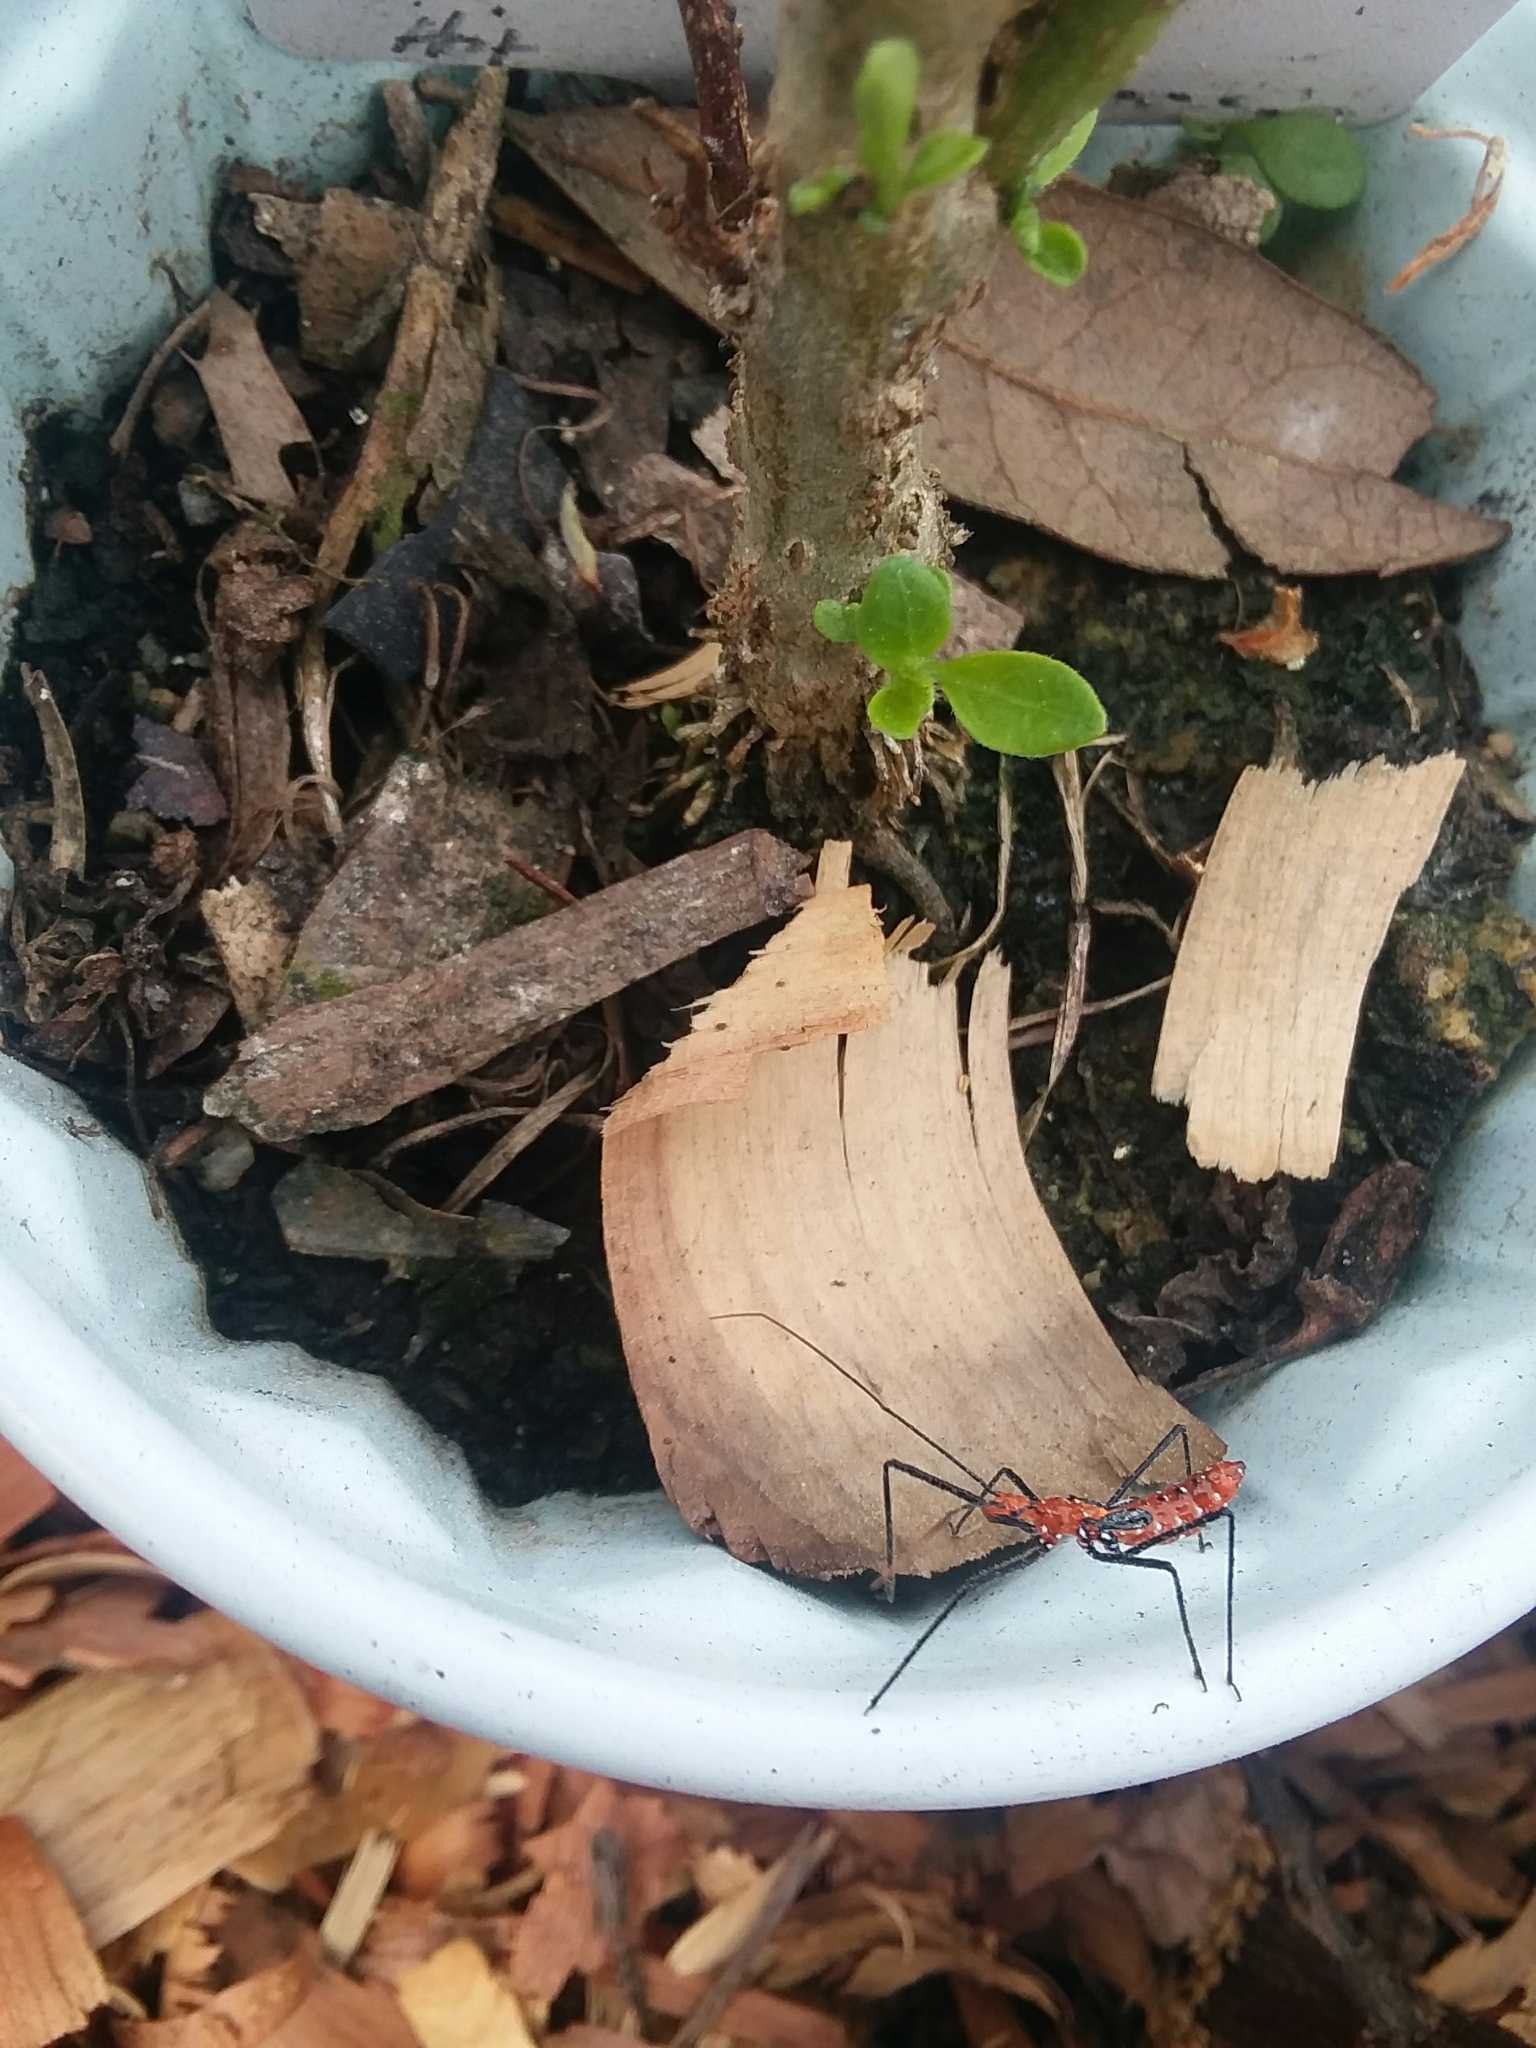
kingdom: Animalia
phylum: Arthropoda
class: Insecta
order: Hemiptera
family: Reduviidae
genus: Zelus
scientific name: Zelus longipes
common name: Milkweed assassin bug
